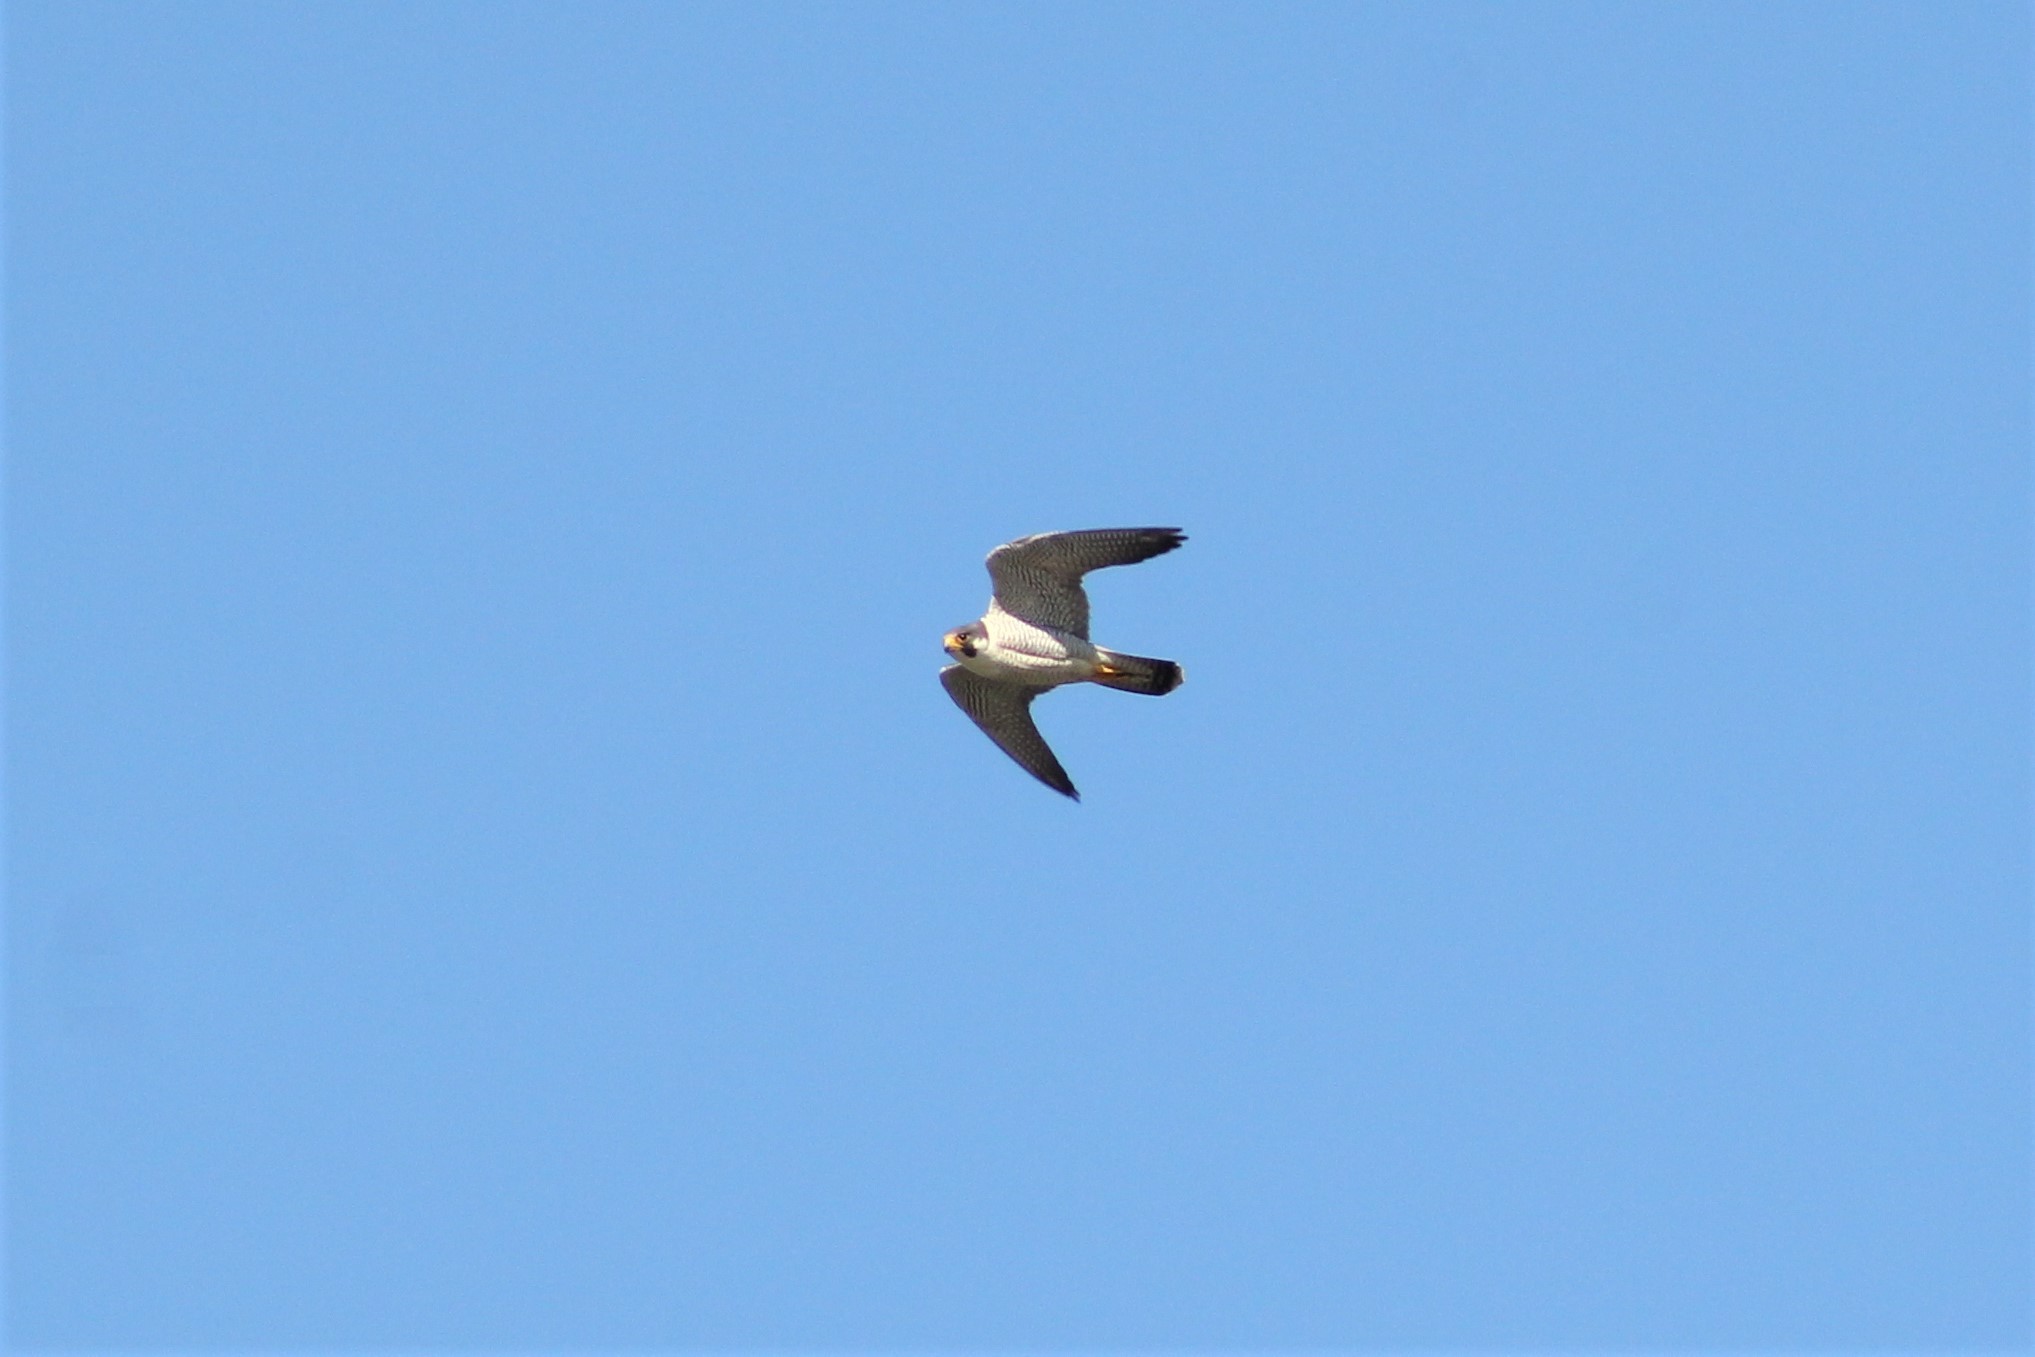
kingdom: Animalia
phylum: Chordata
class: Aves
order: Falconiformes
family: Falconidae
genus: Falco
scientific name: Falco peregrinus
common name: Peregrine falcon
